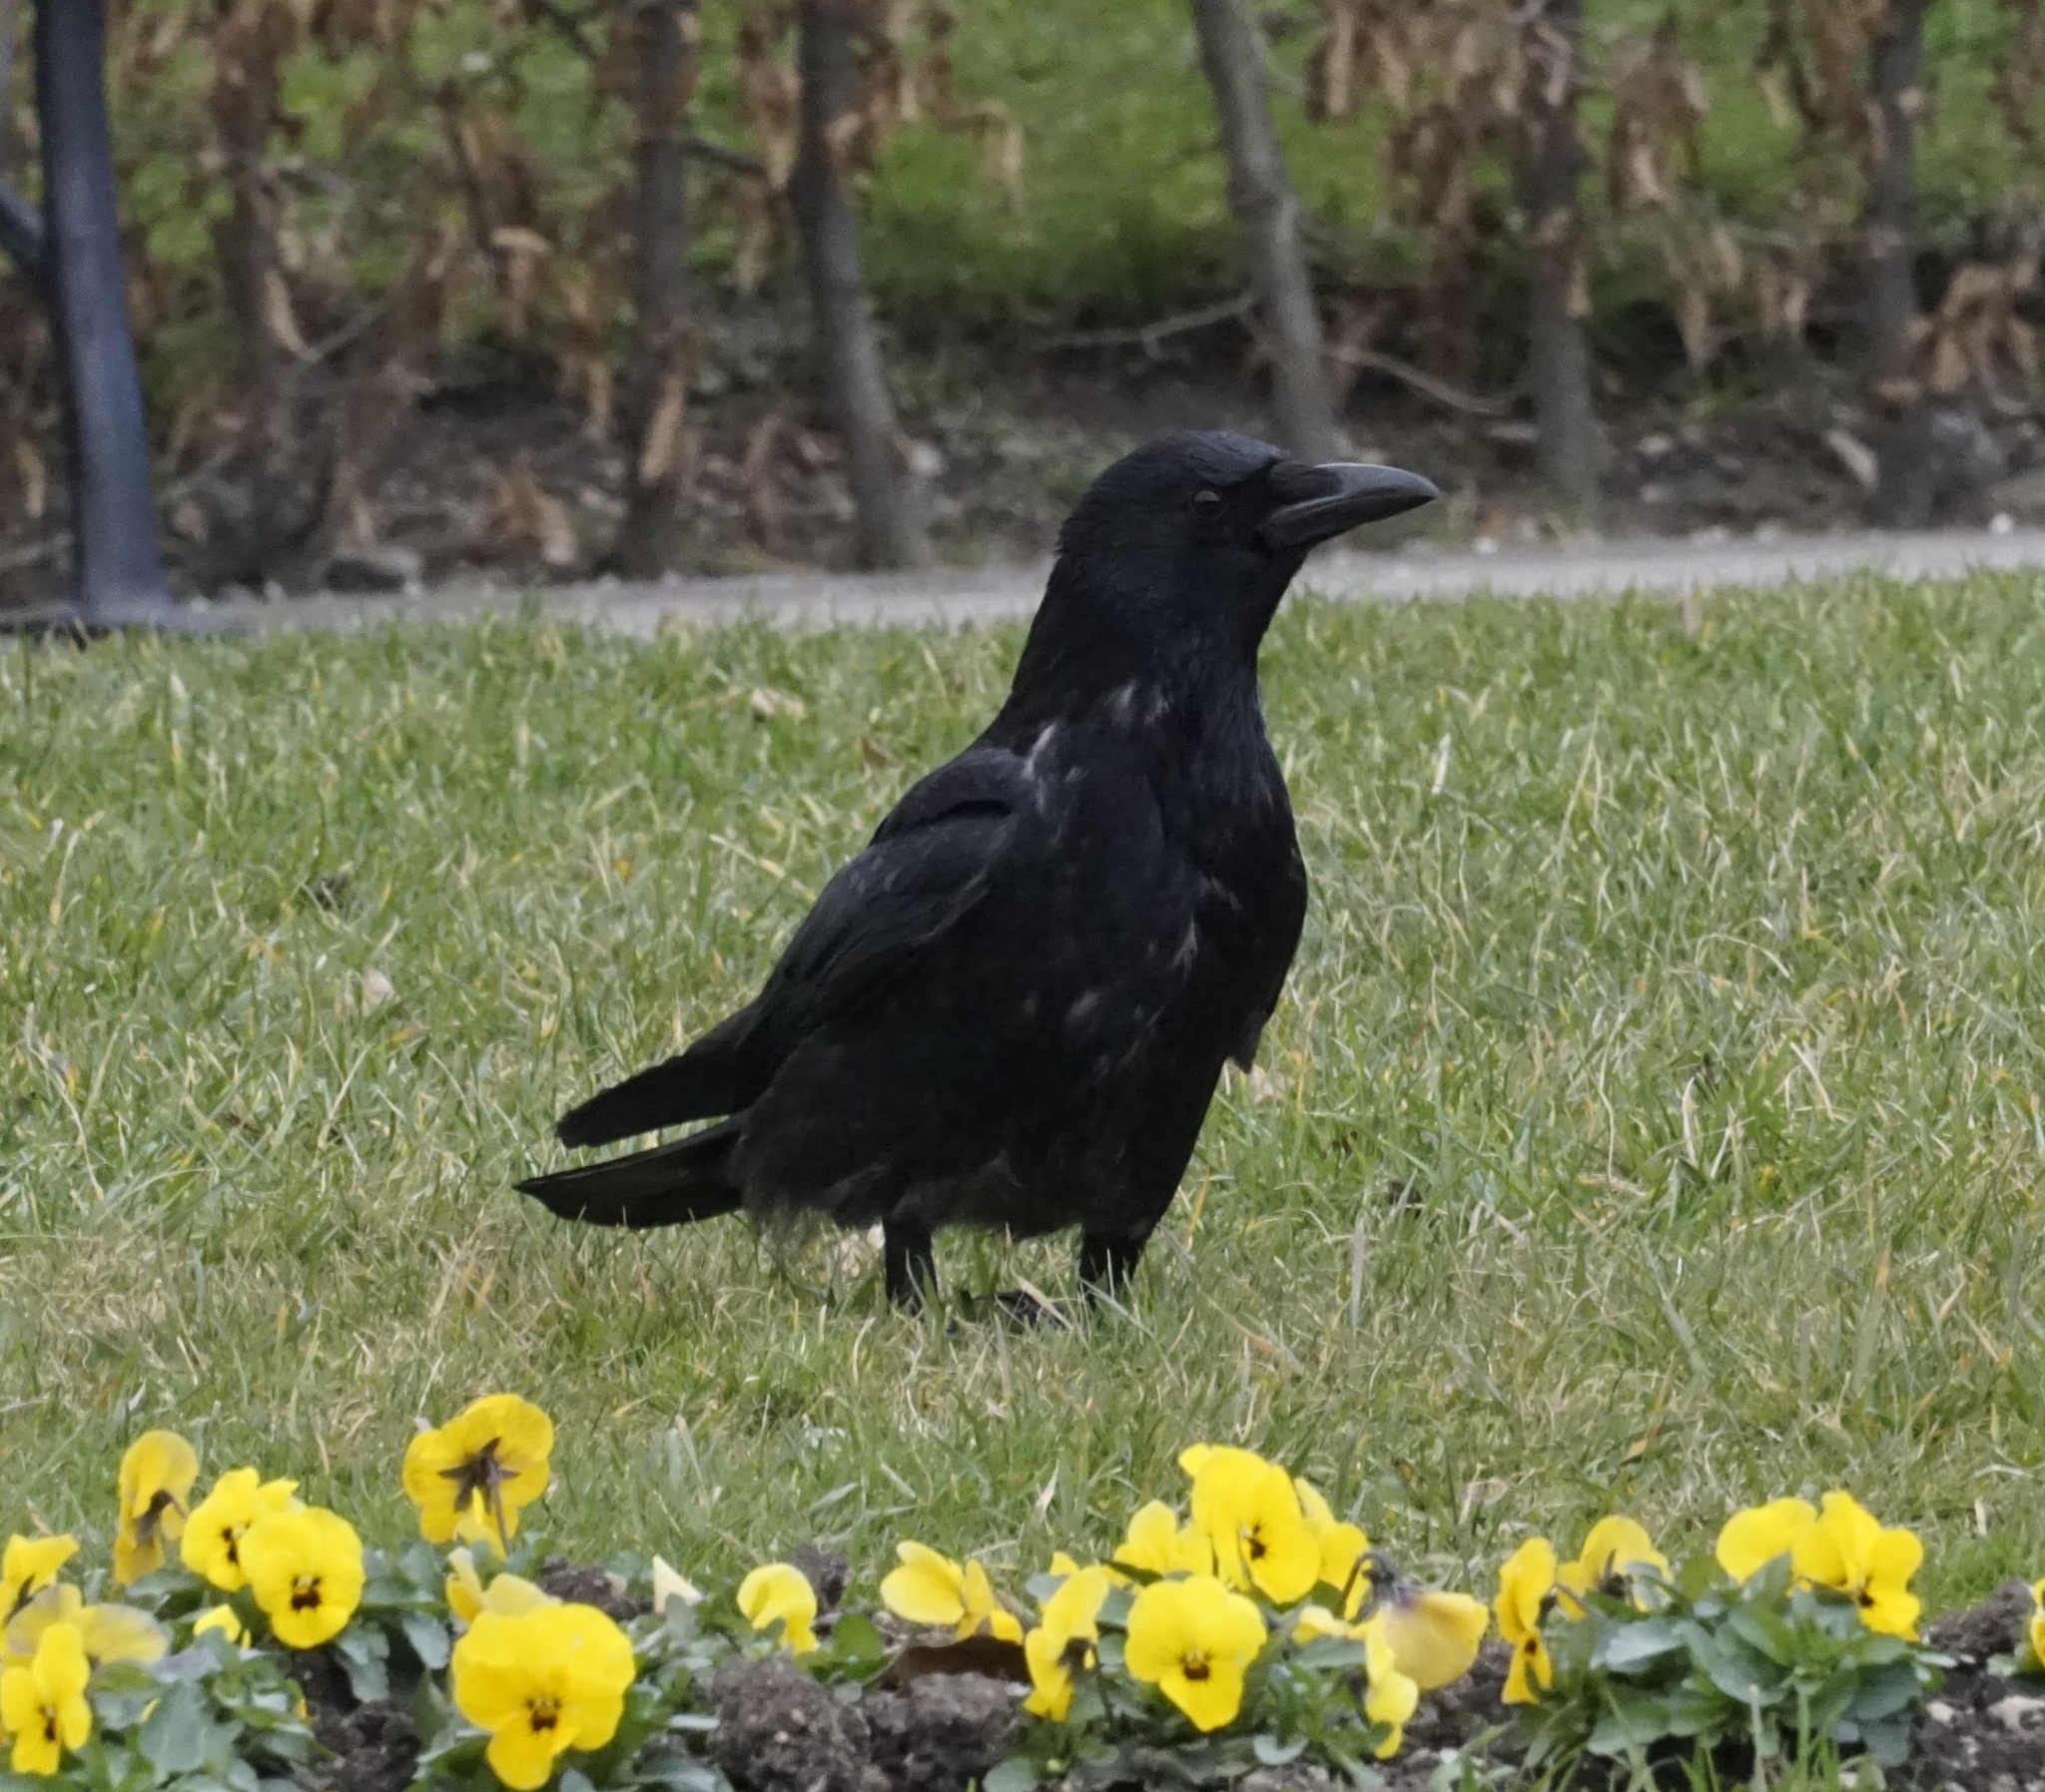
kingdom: Animalia
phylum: Chordata
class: Aves
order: Passeriformes
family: Corvidae
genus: Corvus
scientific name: Corvus corone
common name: Carrion crow
